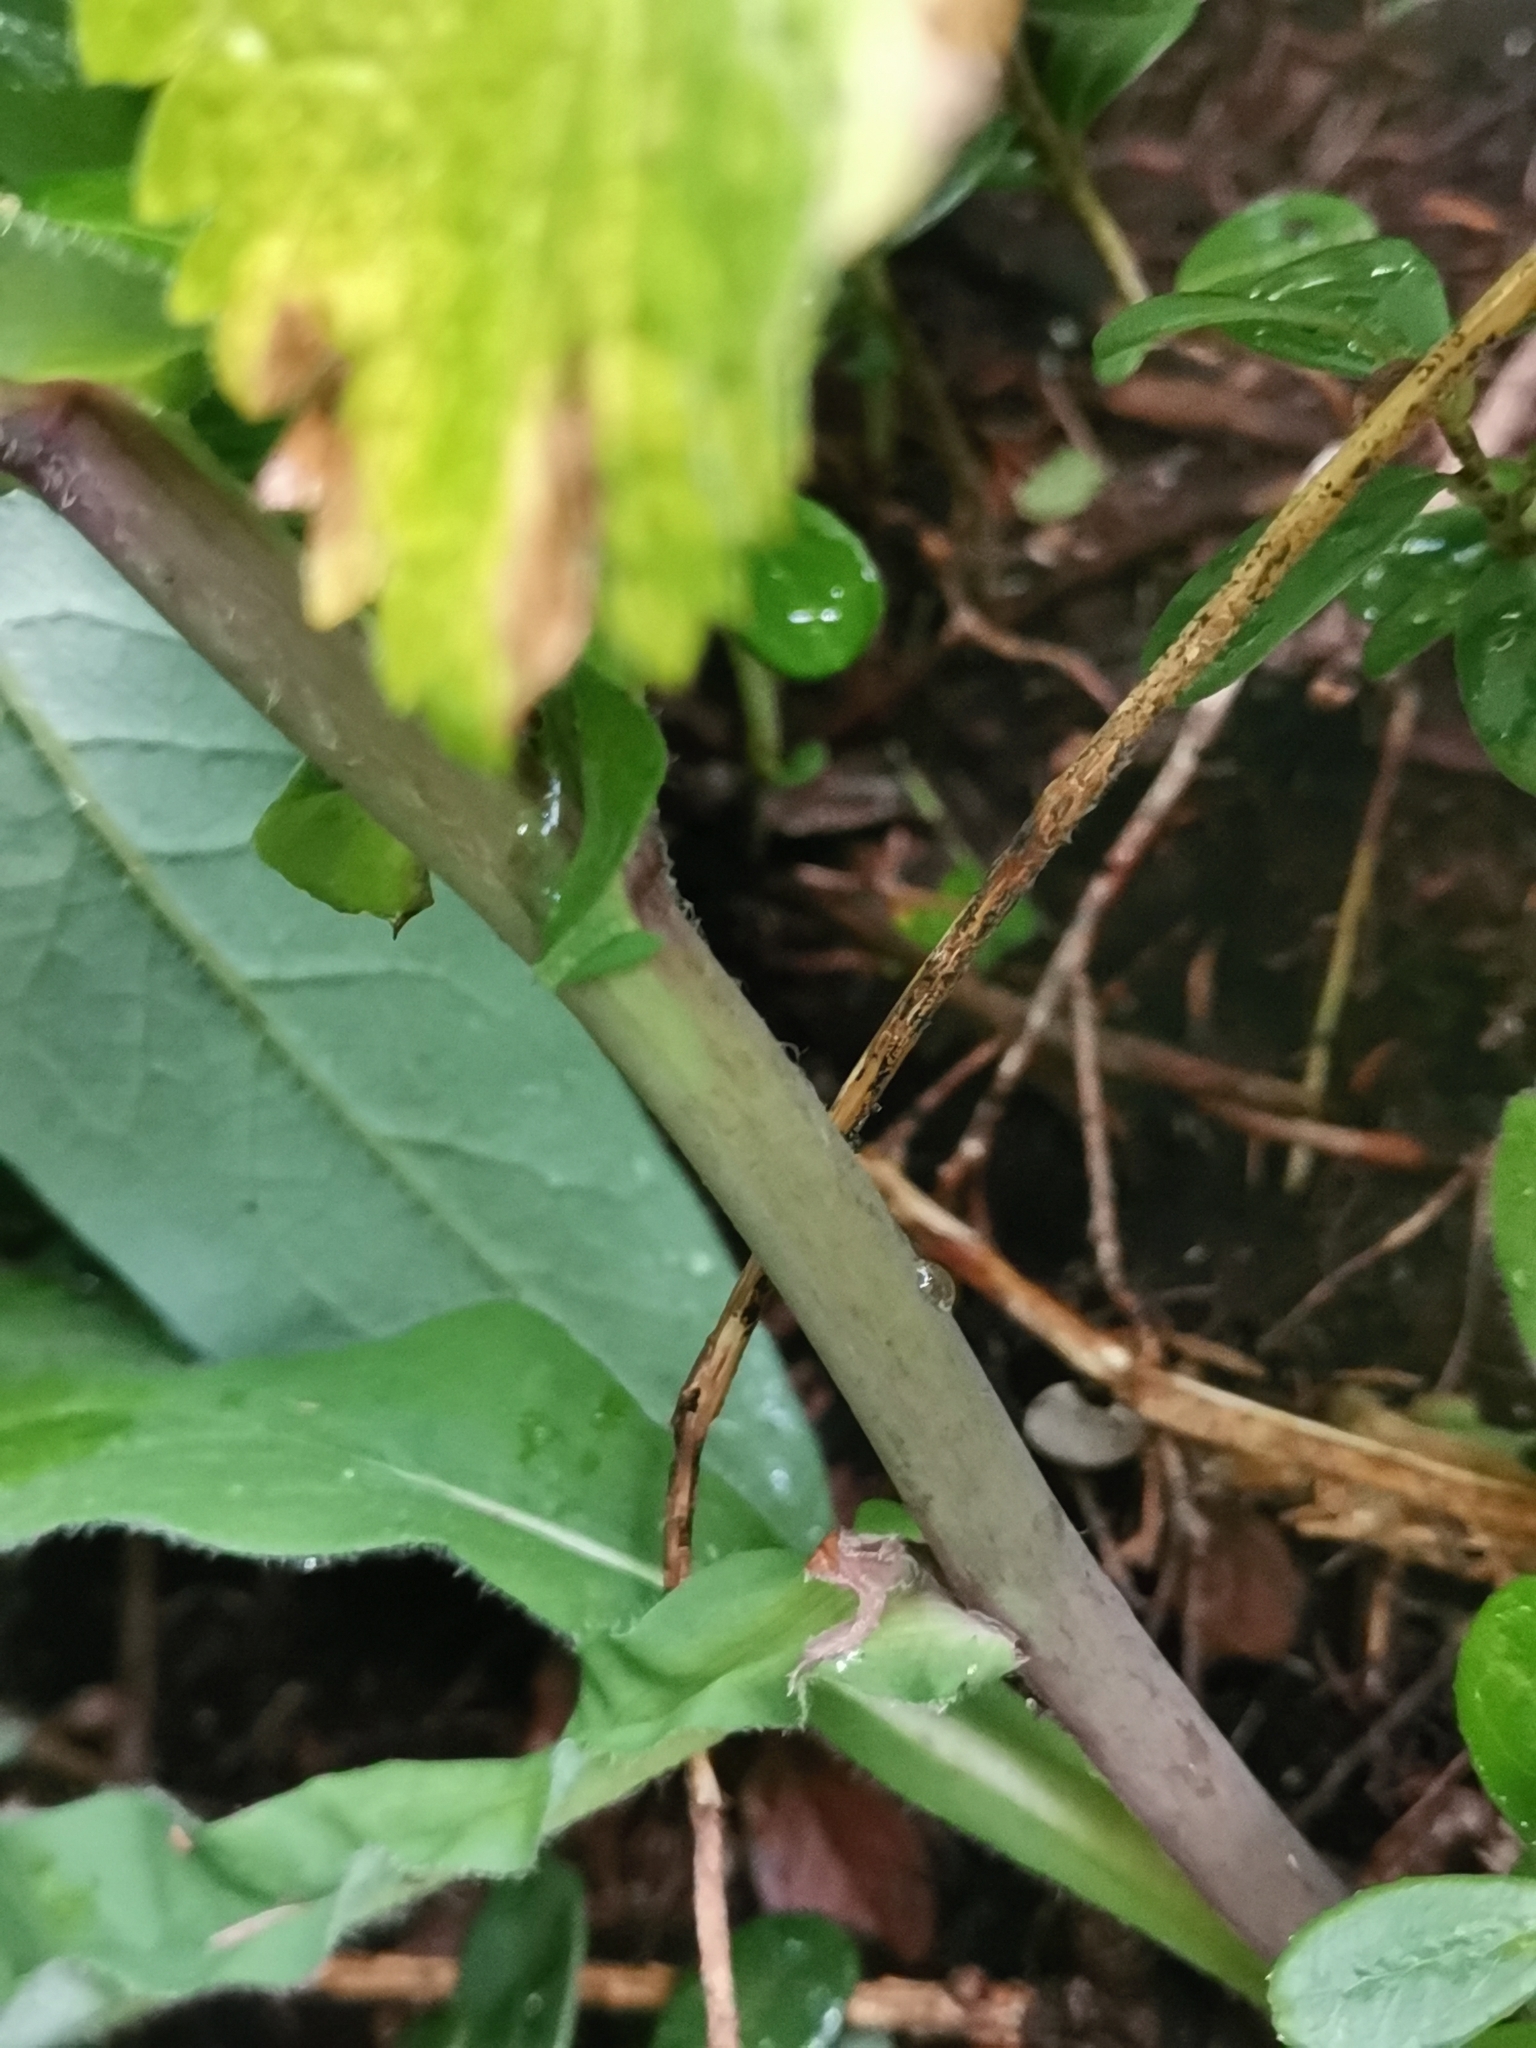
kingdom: Plantae
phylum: Tracheophyta
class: Magnoliopsida
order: Asterales
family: Asteraceae
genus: Hieracium
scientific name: Hieracium prenanthoides
